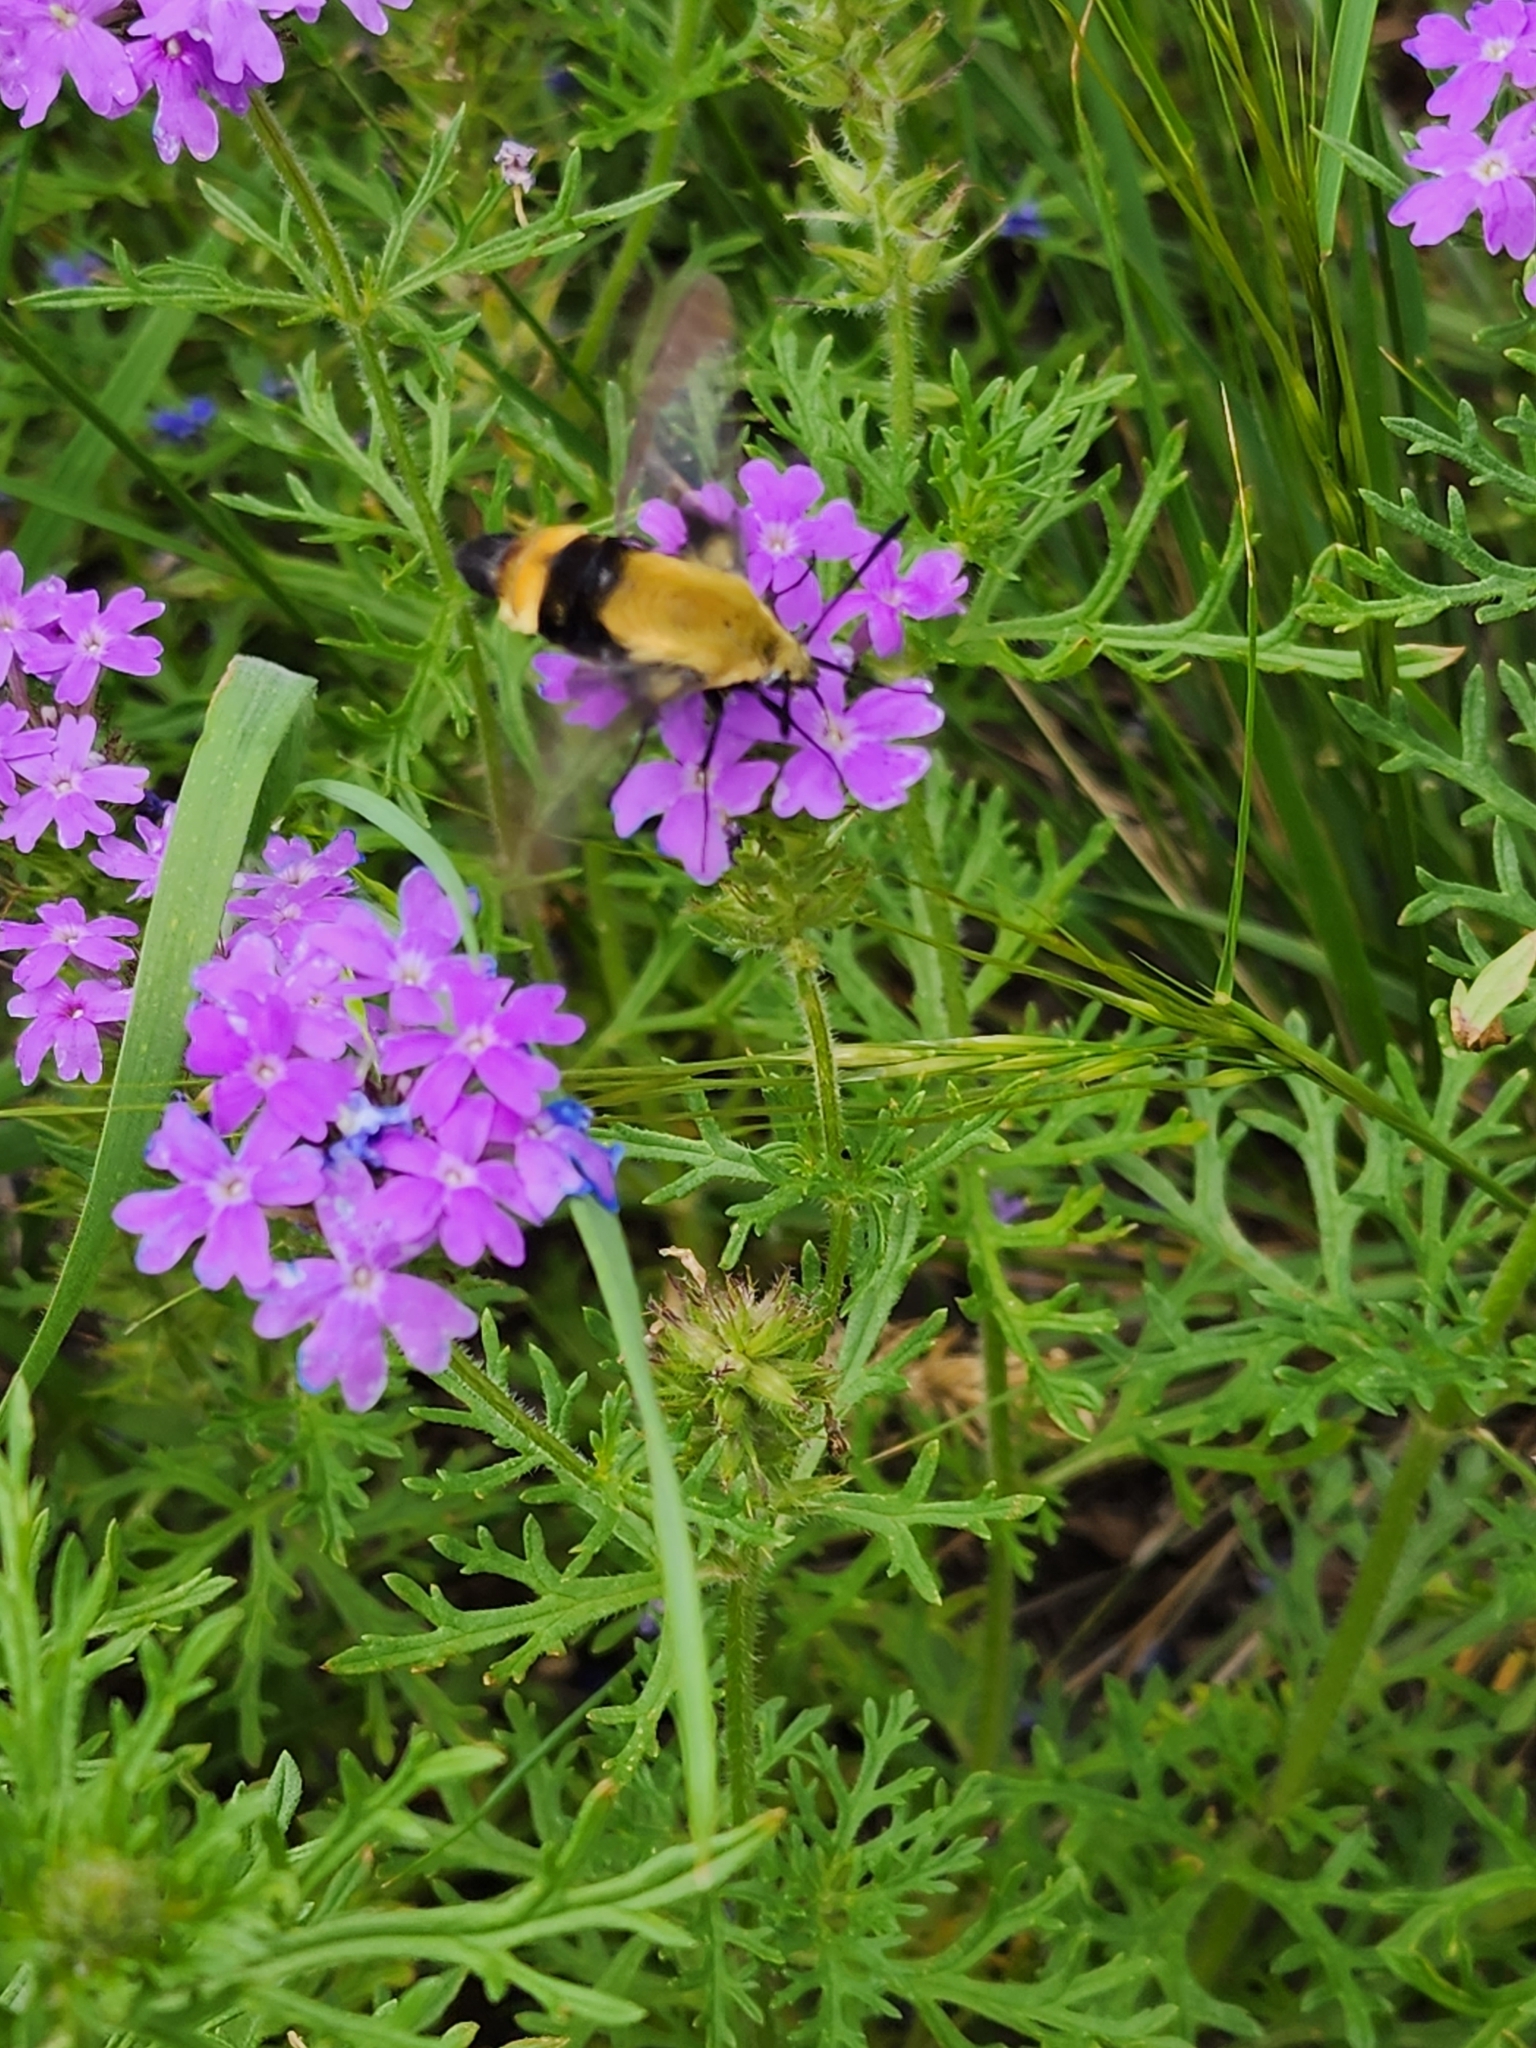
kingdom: Animalia
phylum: Arthropoda
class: Insecta
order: Lepidoptera
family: Sphingidae
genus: Hemaris
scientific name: Hemaris diffinis
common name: Bumblebee moth
